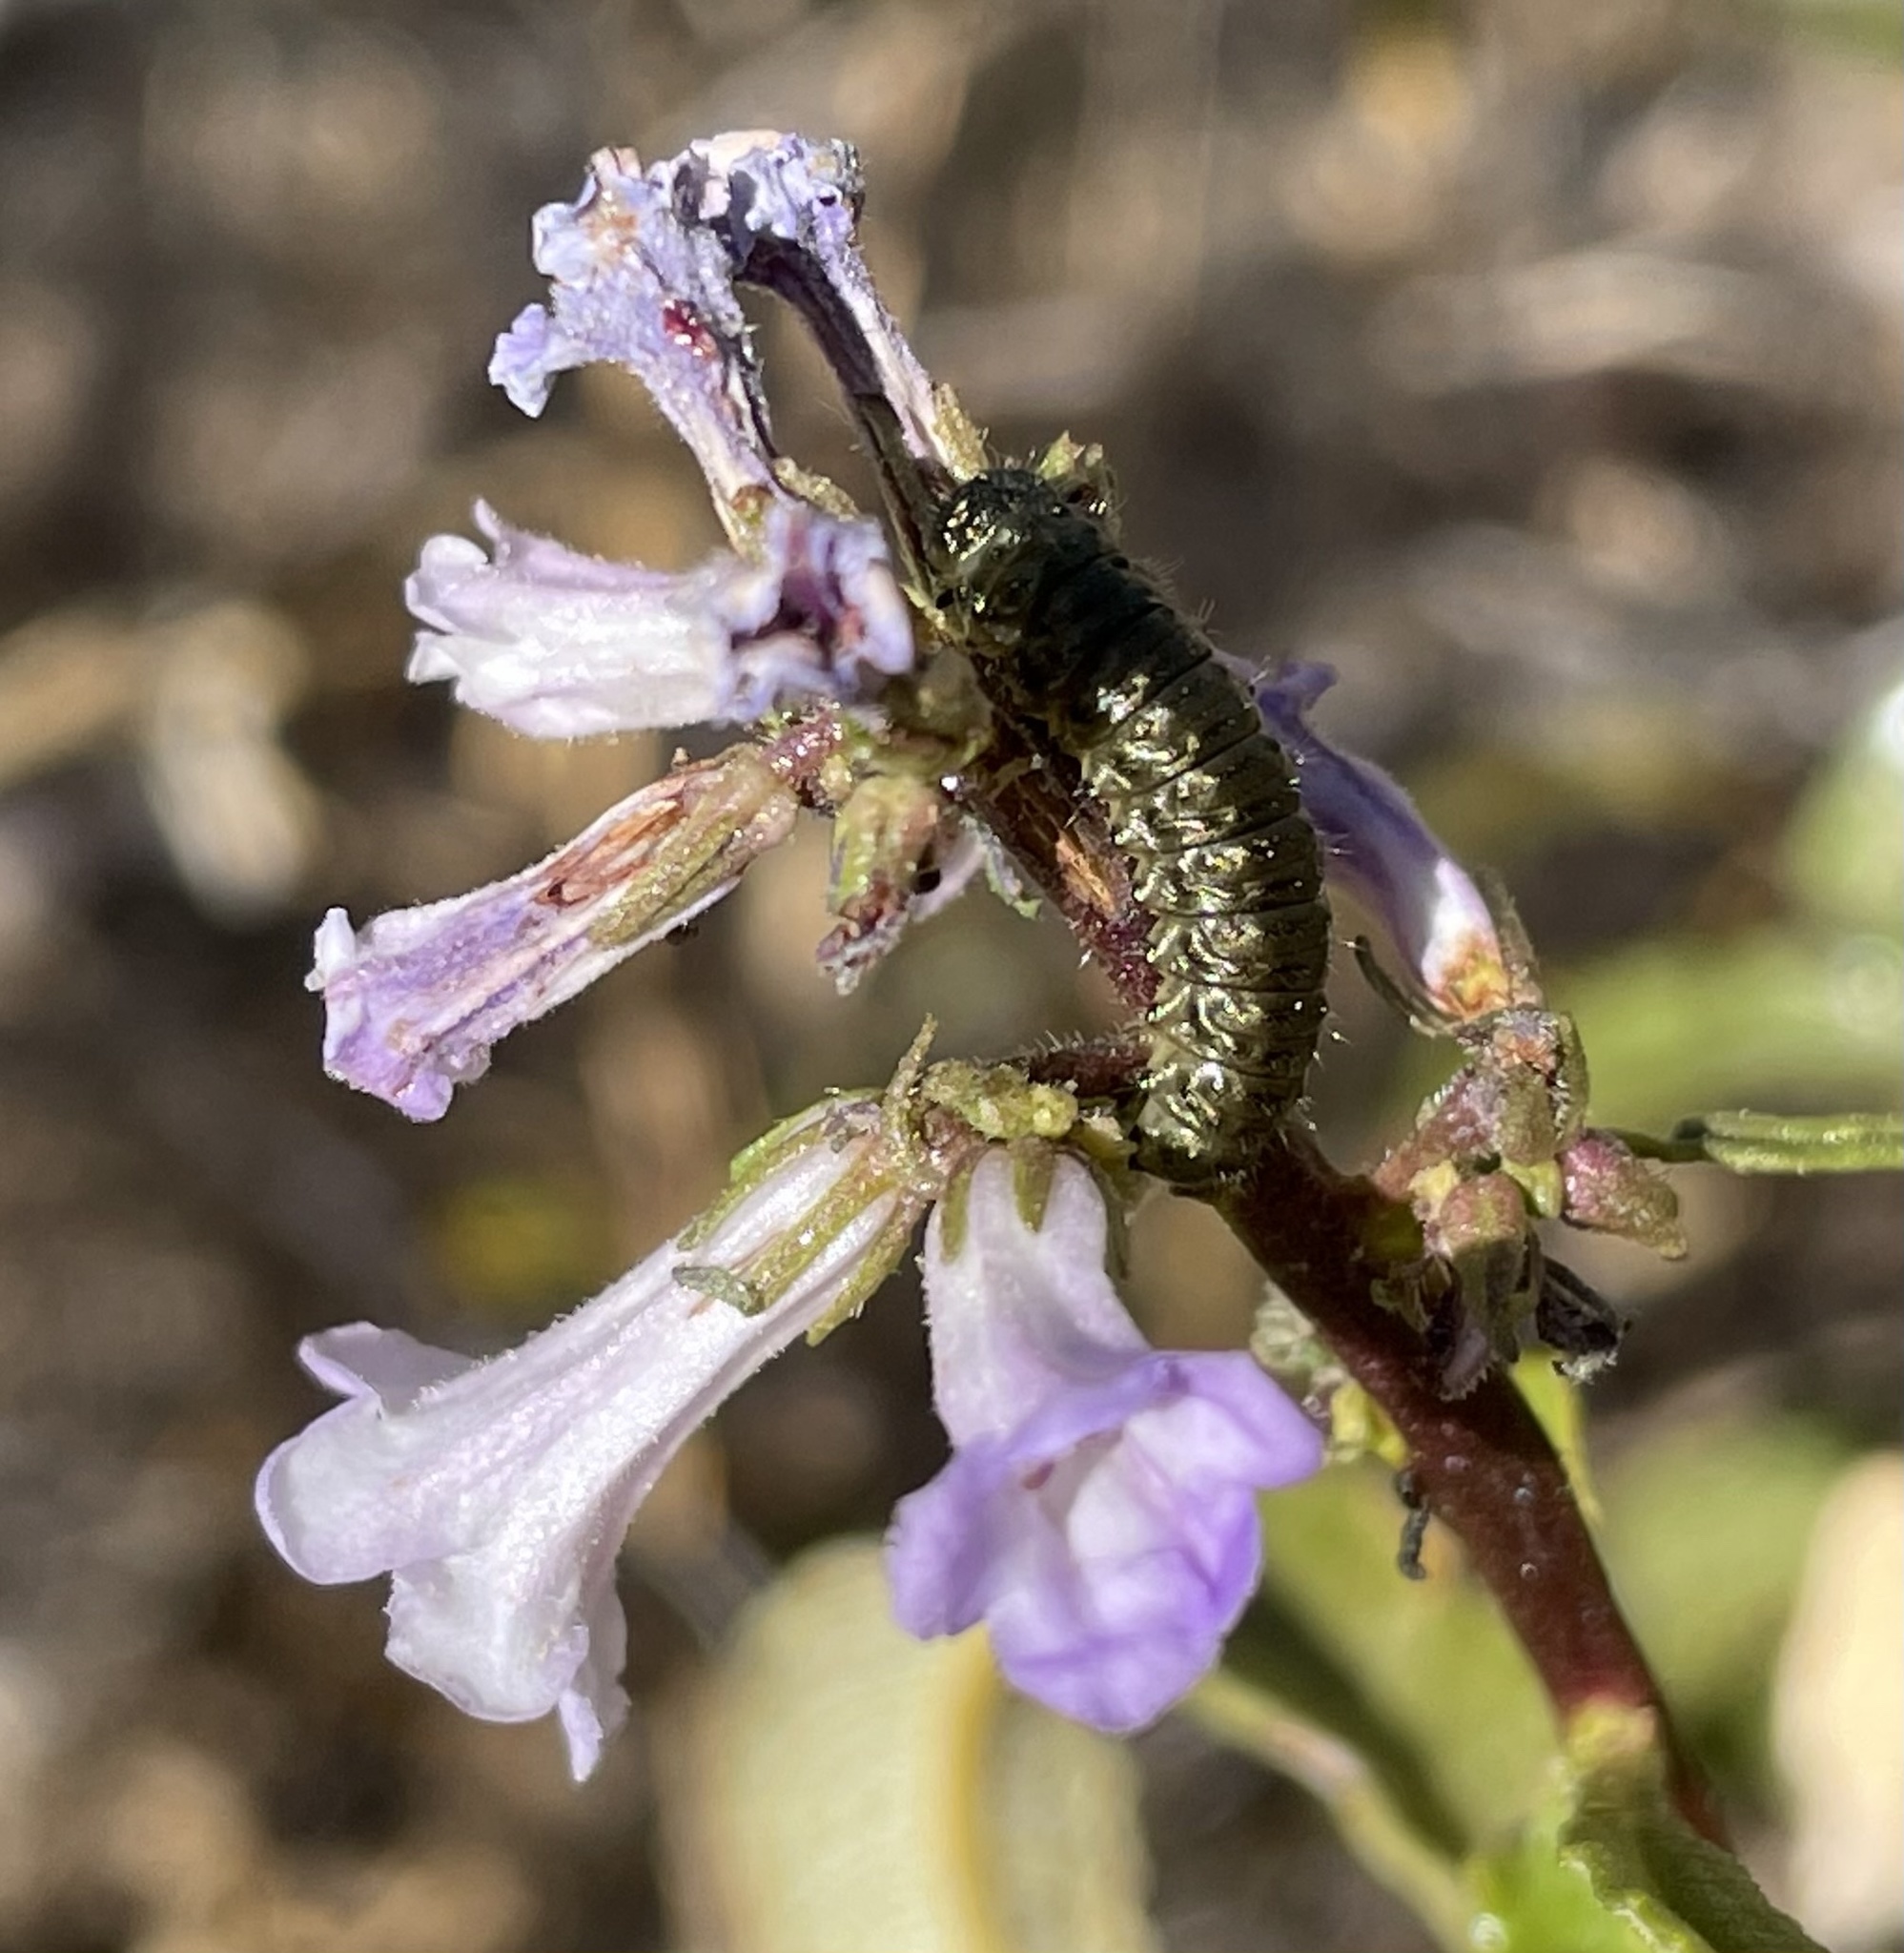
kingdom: Plantae
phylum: Tracheophyta
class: Magnoliopsida
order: Boraginales
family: Namaceae
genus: Eriodictyon
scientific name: Eriodictyon californicum
